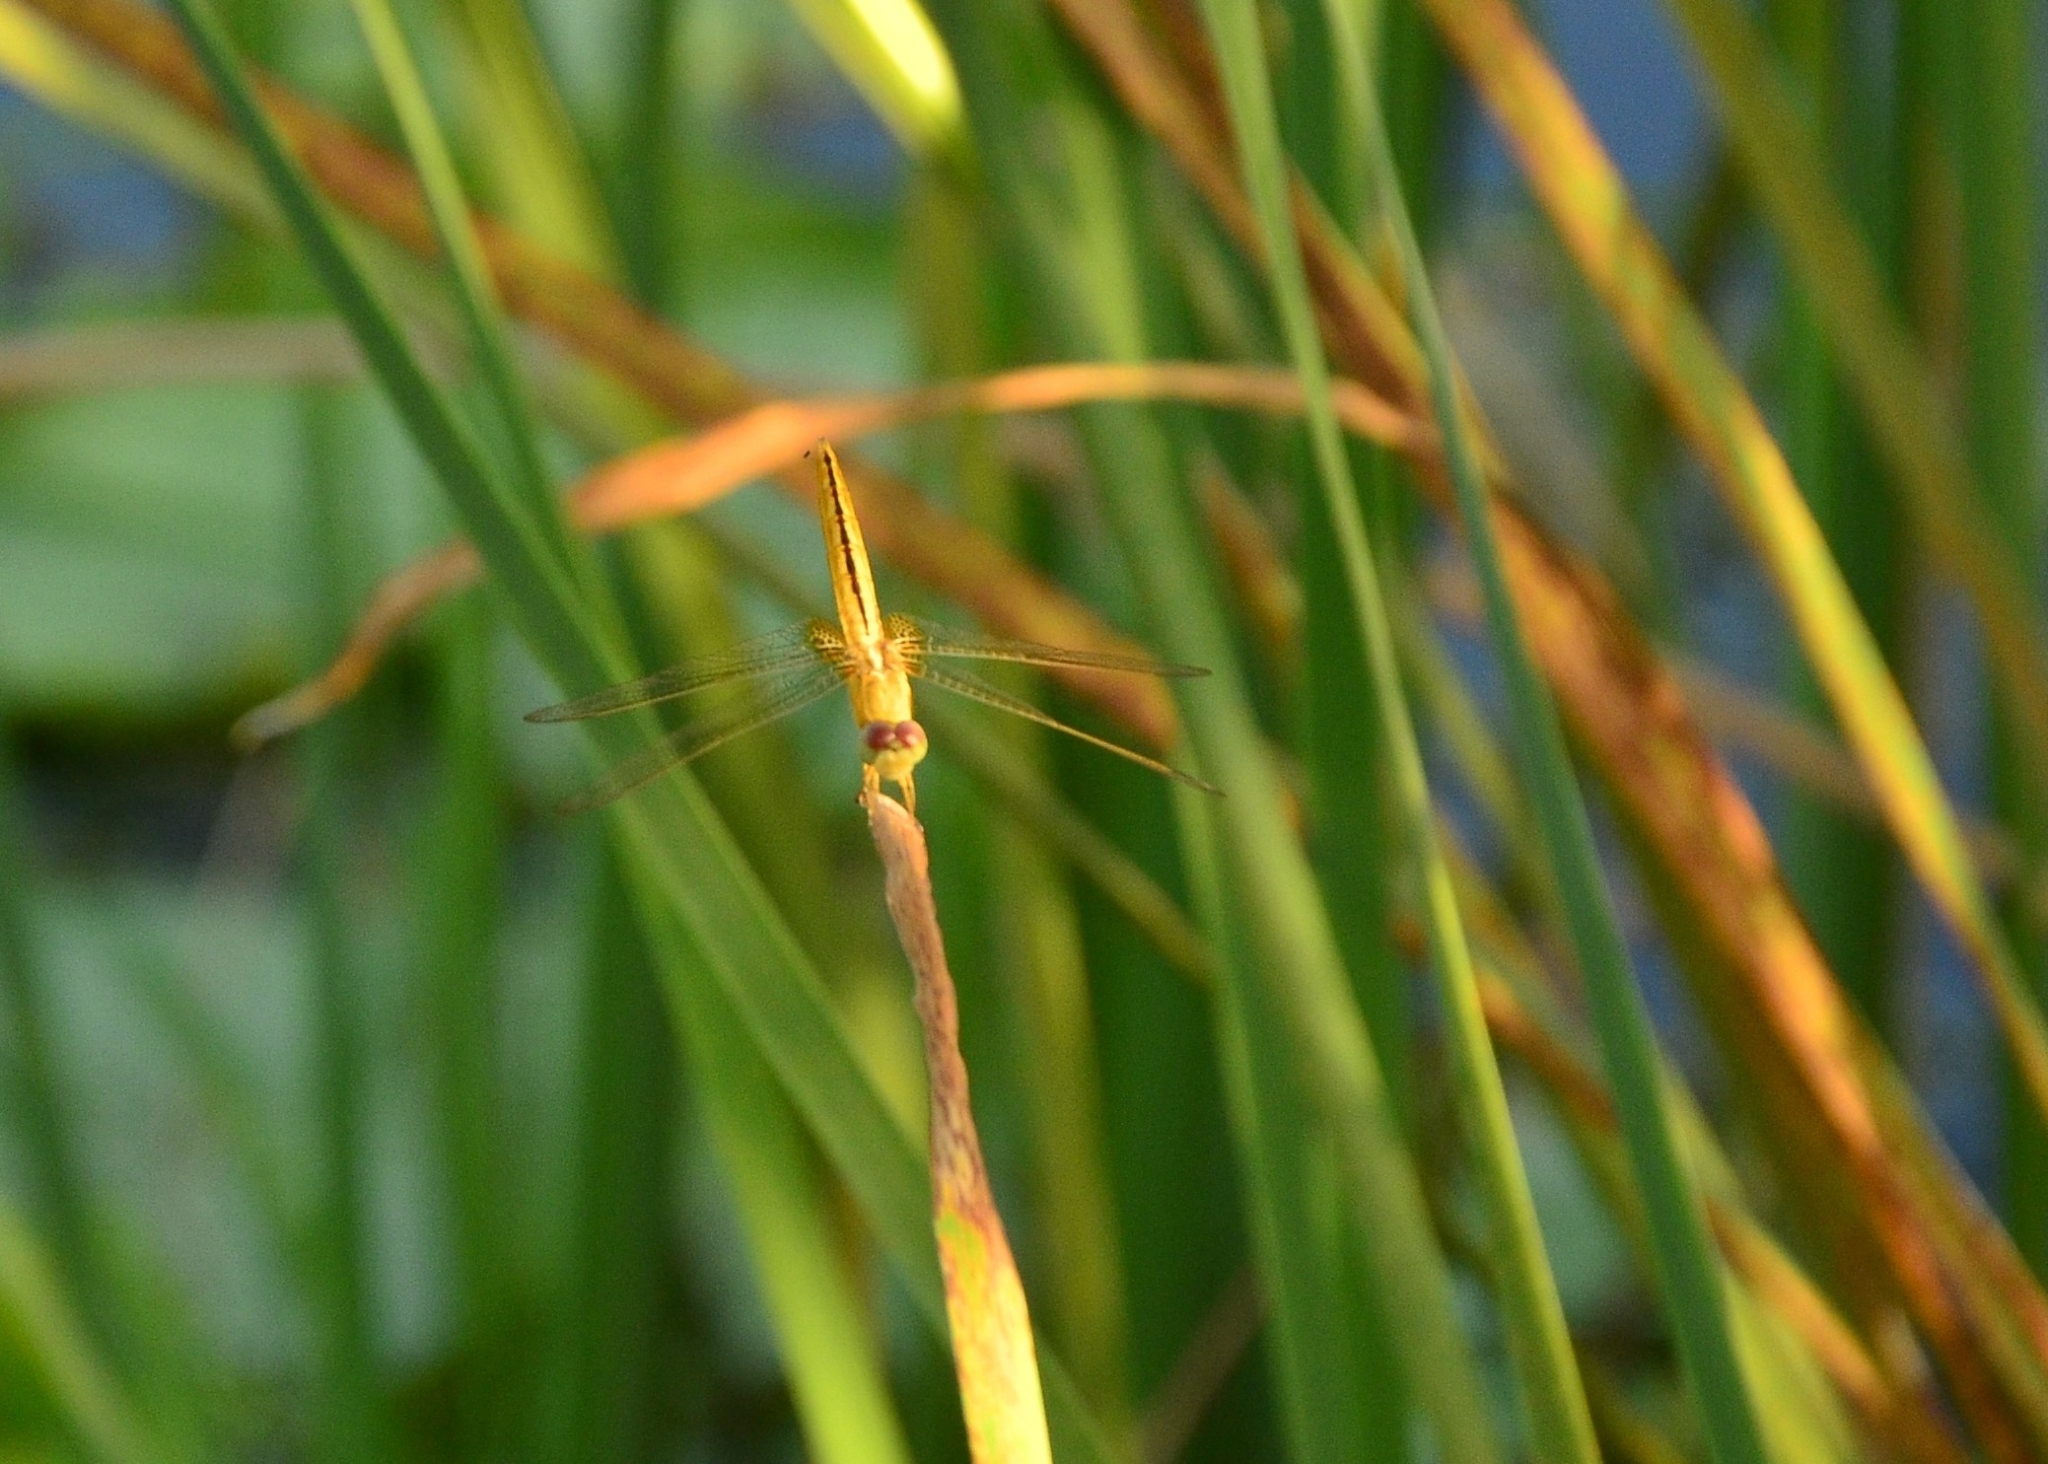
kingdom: Animalia
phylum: Arthropoda
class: Insecta
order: Odonata
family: Libellulidae
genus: Crocothemis
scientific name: Crocothemis servilia
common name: Scarlet skimmer
